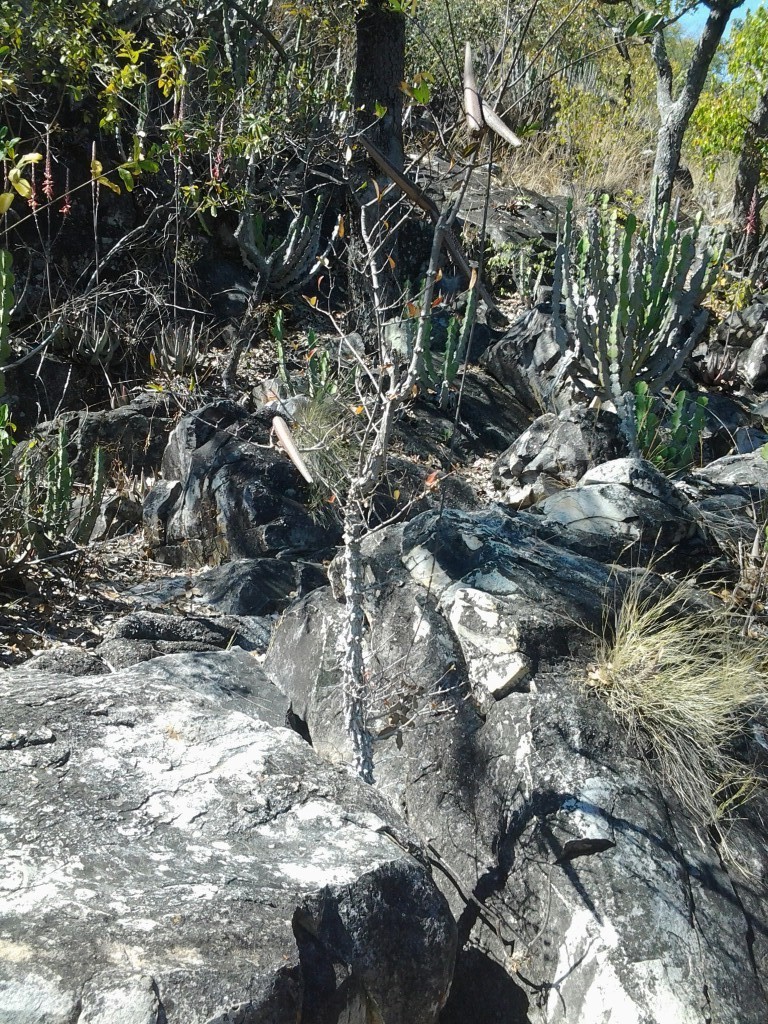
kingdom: Plantae
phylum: Tracheophyta
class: Magnoliopsida
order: Gentianales
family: Apocynaceae
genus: Strophanthus
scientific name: Strophanthus welwitschii
